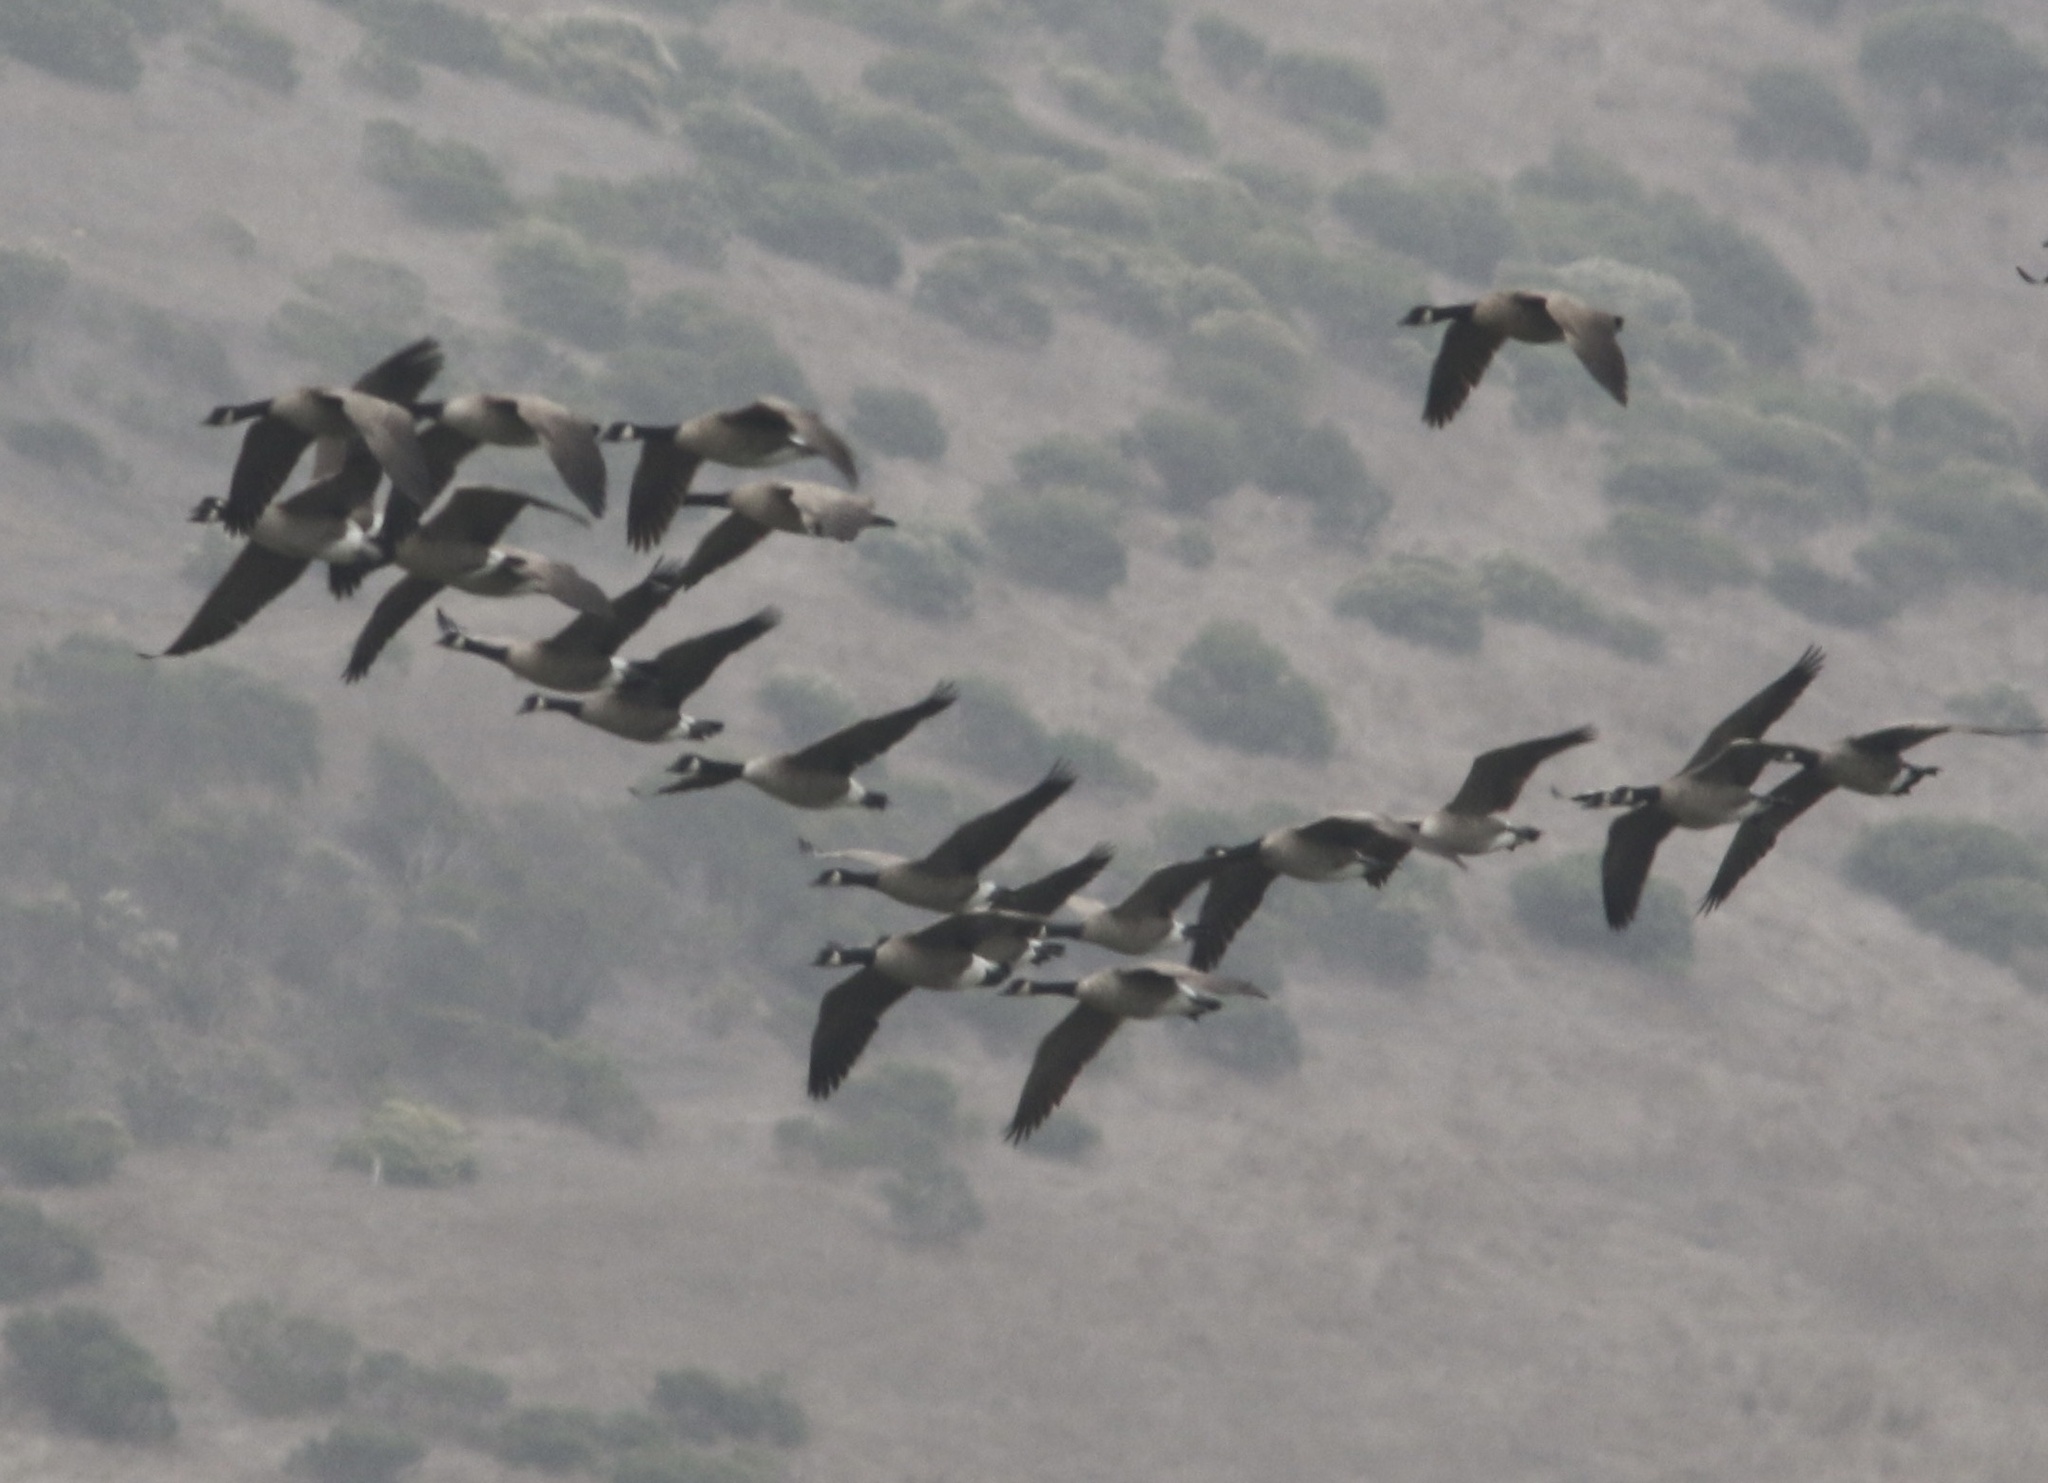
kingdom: Animalia
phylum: Chordata
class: Aves
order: Anseriformes
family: Anatidae
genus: Branta
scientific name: Branta canadensis
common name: Canada goose
